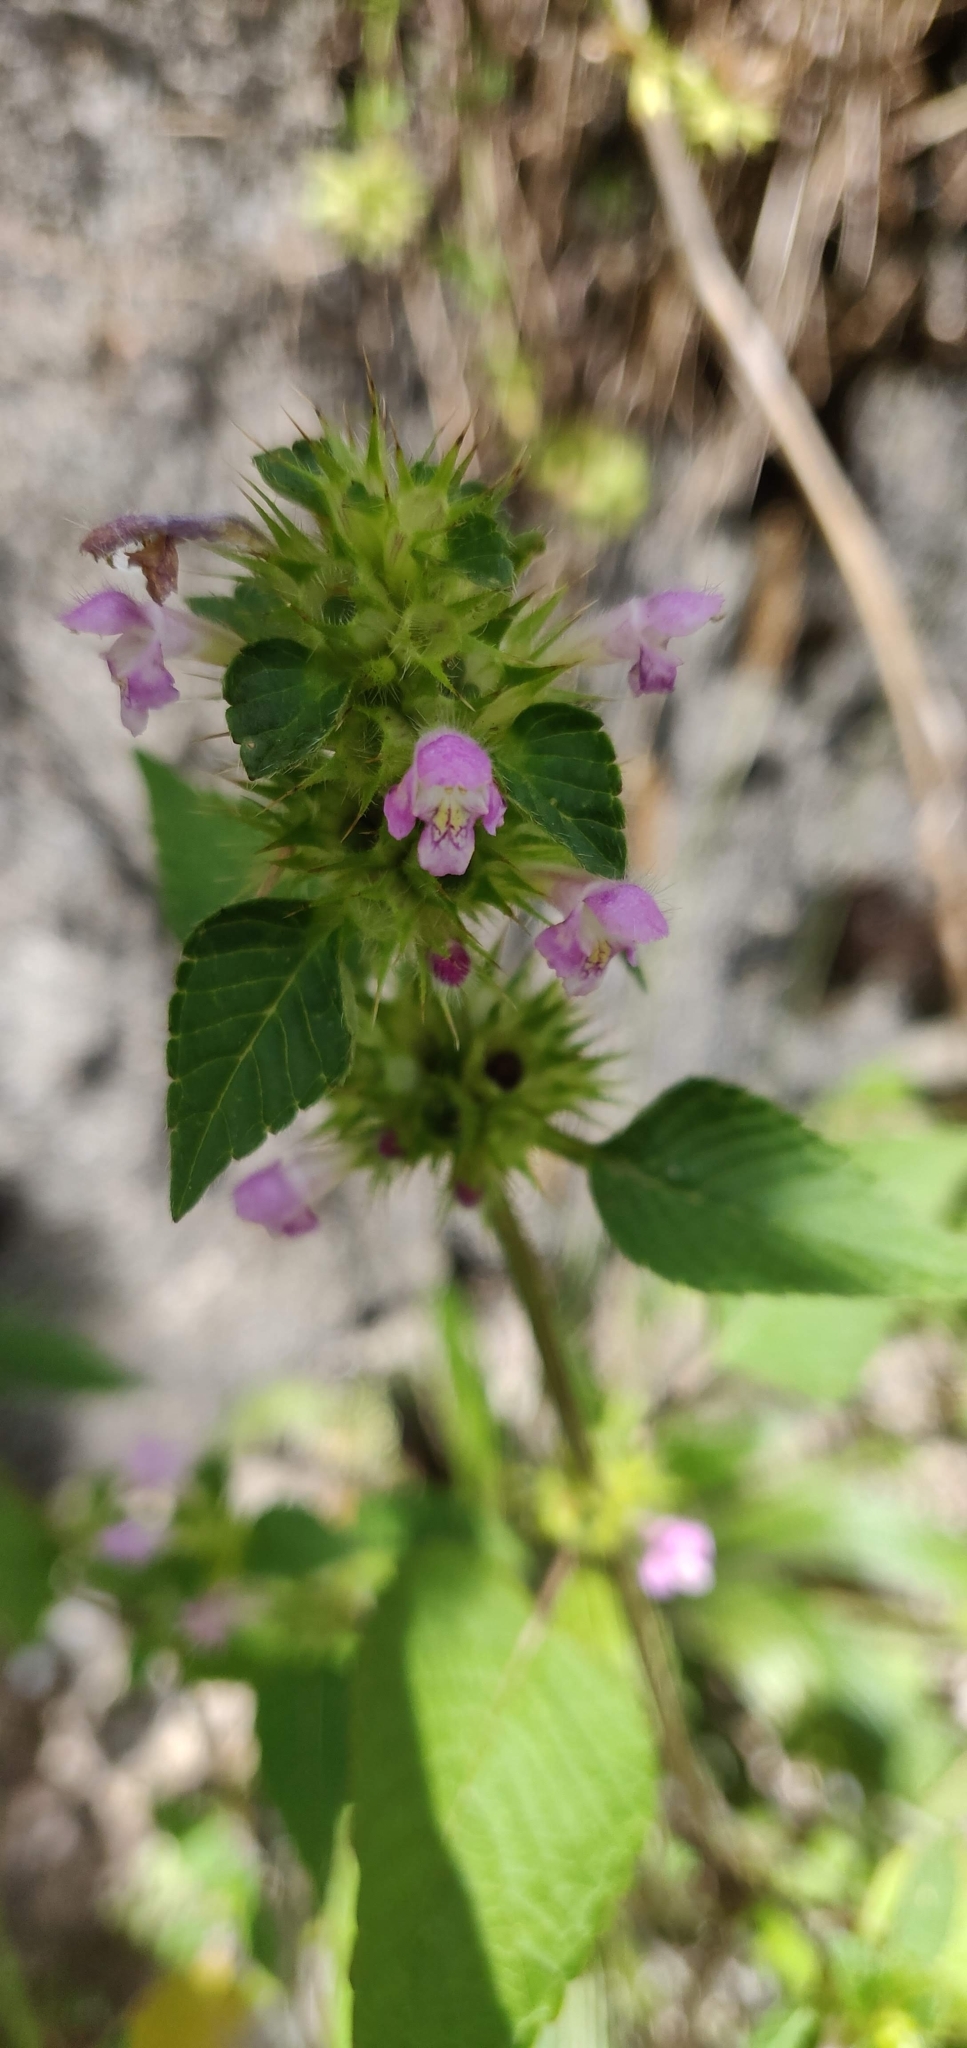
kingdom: Plantae
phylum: Tracheophyta
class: Magnoliopsida
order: Lamiales
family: Lamiaceae
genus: Galeopsis
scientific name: Galeopsis tetrahit
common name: Common hemp-nettle
